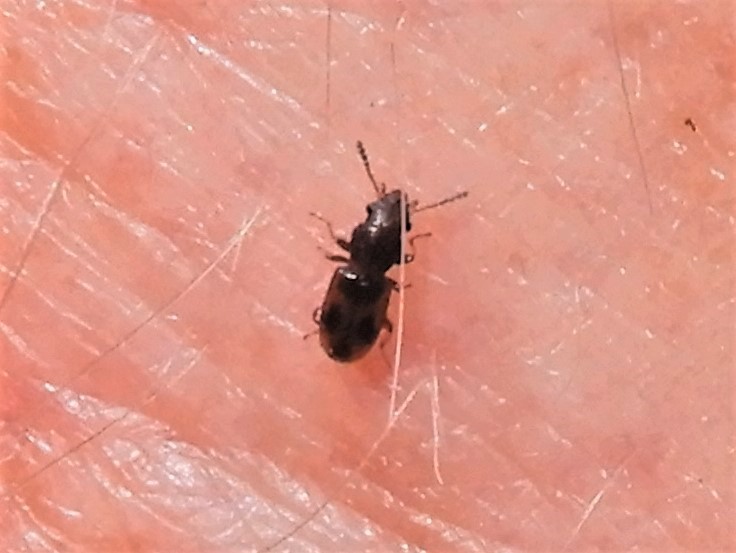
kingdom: Animalia
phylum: Arthropoda
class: Insecta
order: Coleoptera
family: Salpingidae
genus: Salpingus
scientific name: Salpingus
